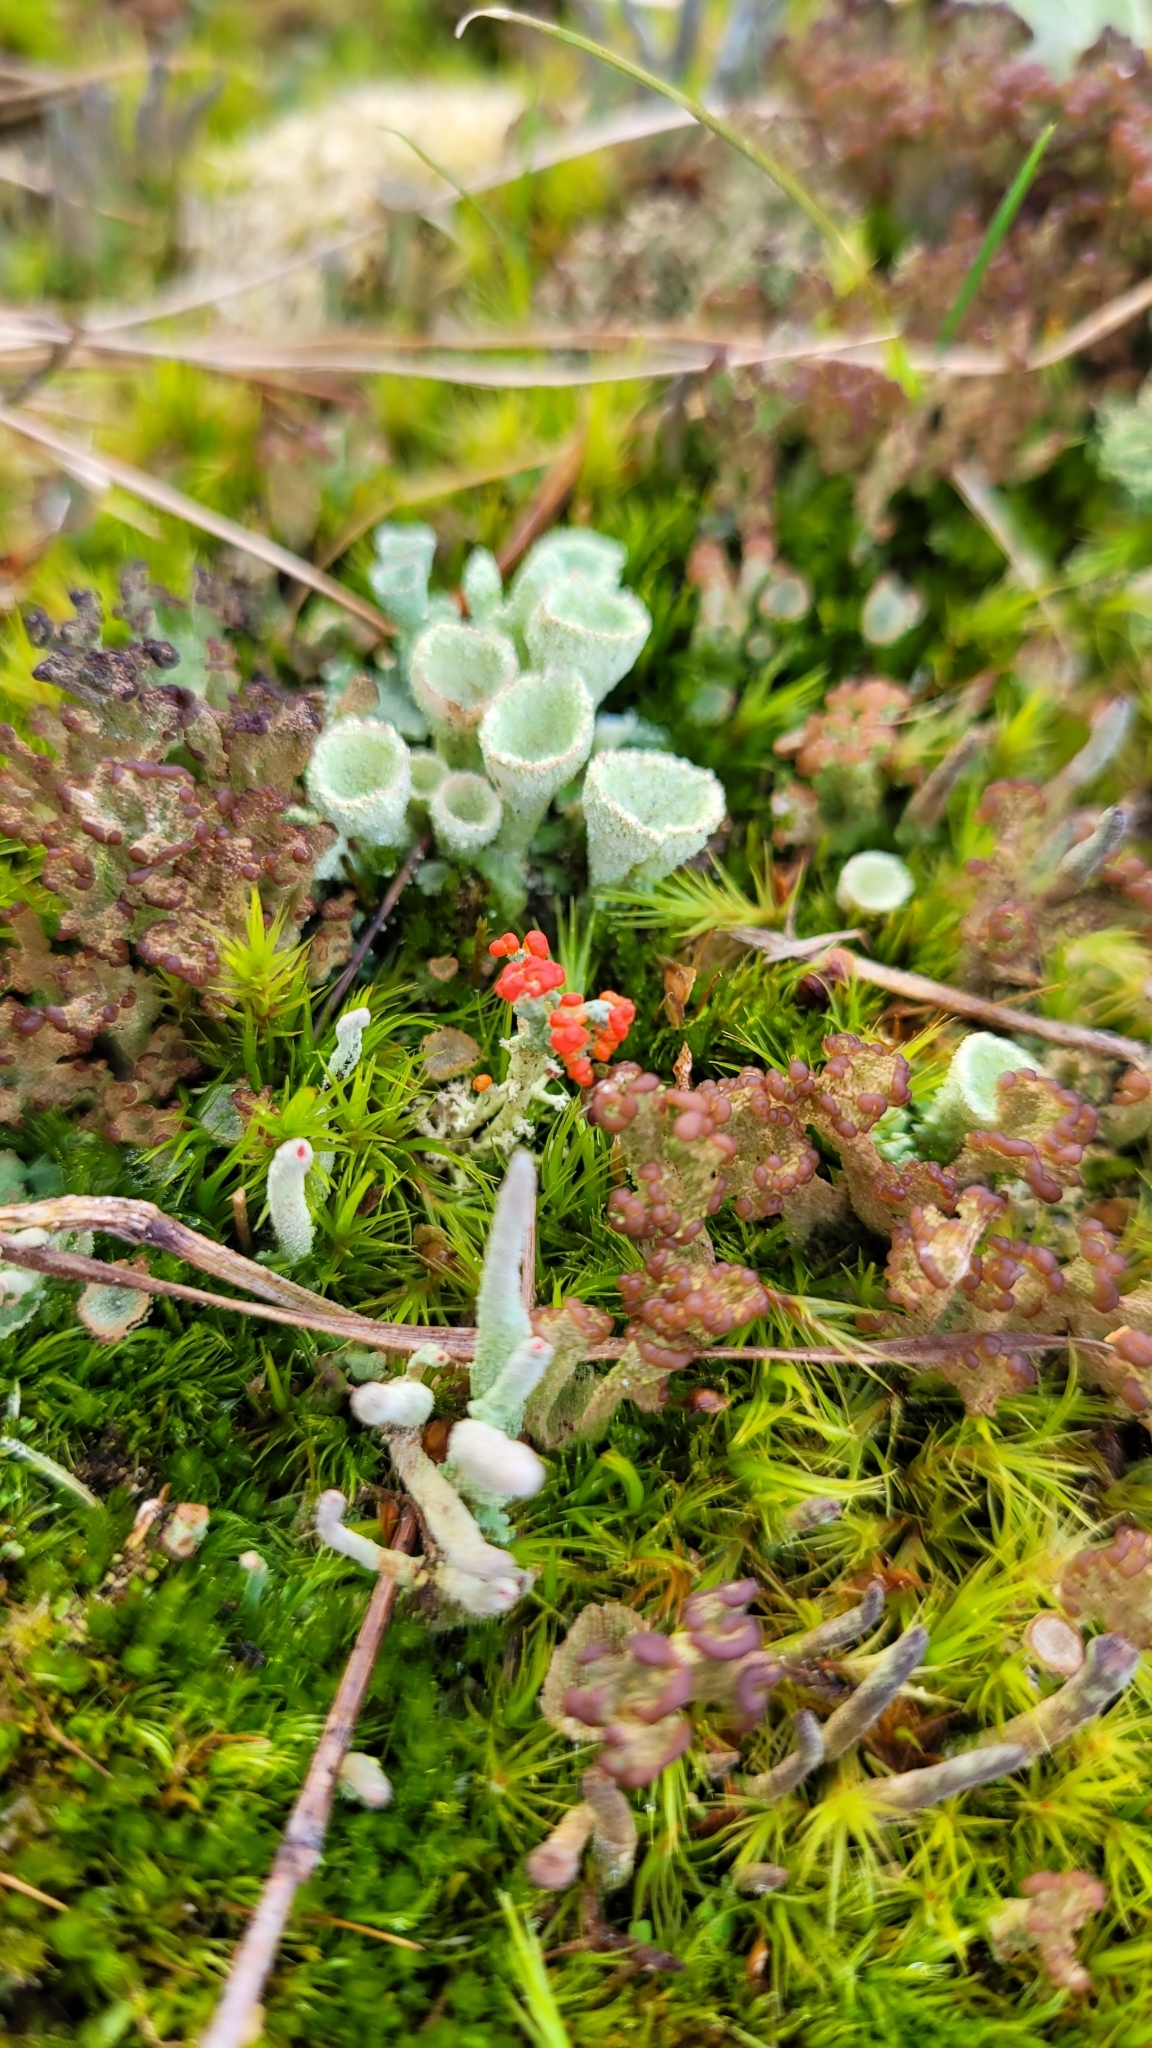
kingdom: Fungi
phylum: Ascomycota
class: Lecanoromycetes
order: Lecanorales
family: Cladoniaceae
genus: Cladonia
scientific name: Cladonia fimbriata
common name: Powdered trumpet lichen
